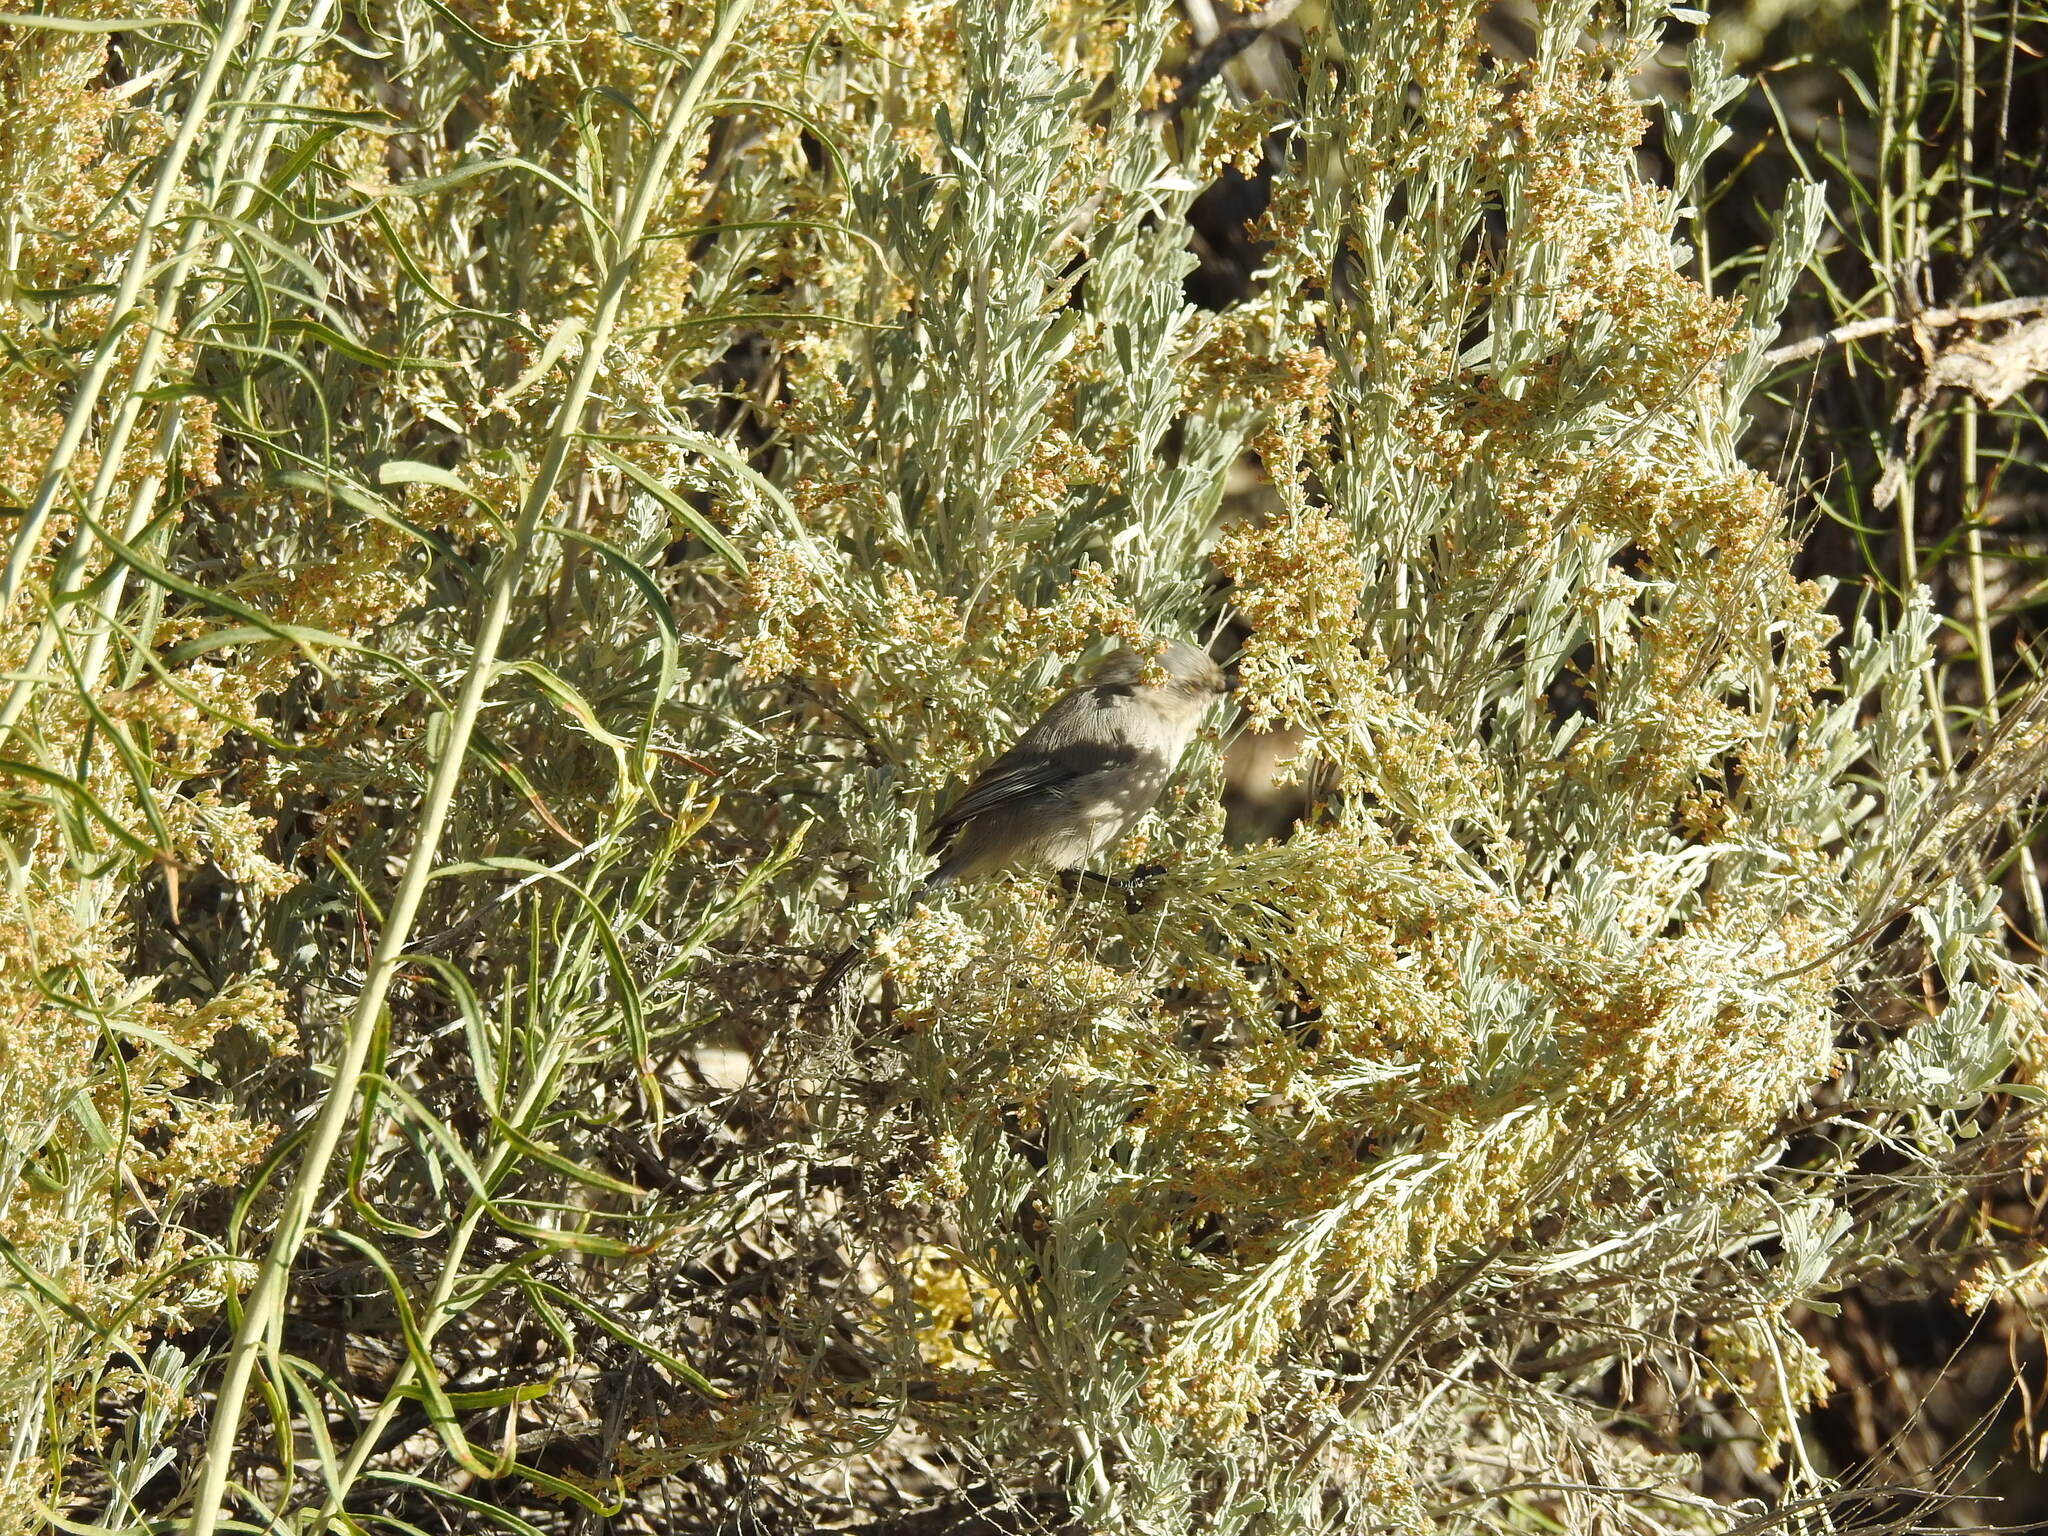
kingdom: Animalia
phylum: Chordata
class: Aves
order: Passeriformes
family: Aegithalidae
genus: Psaltriparus
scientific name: Psaltriparus minimus
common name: American bushtit
